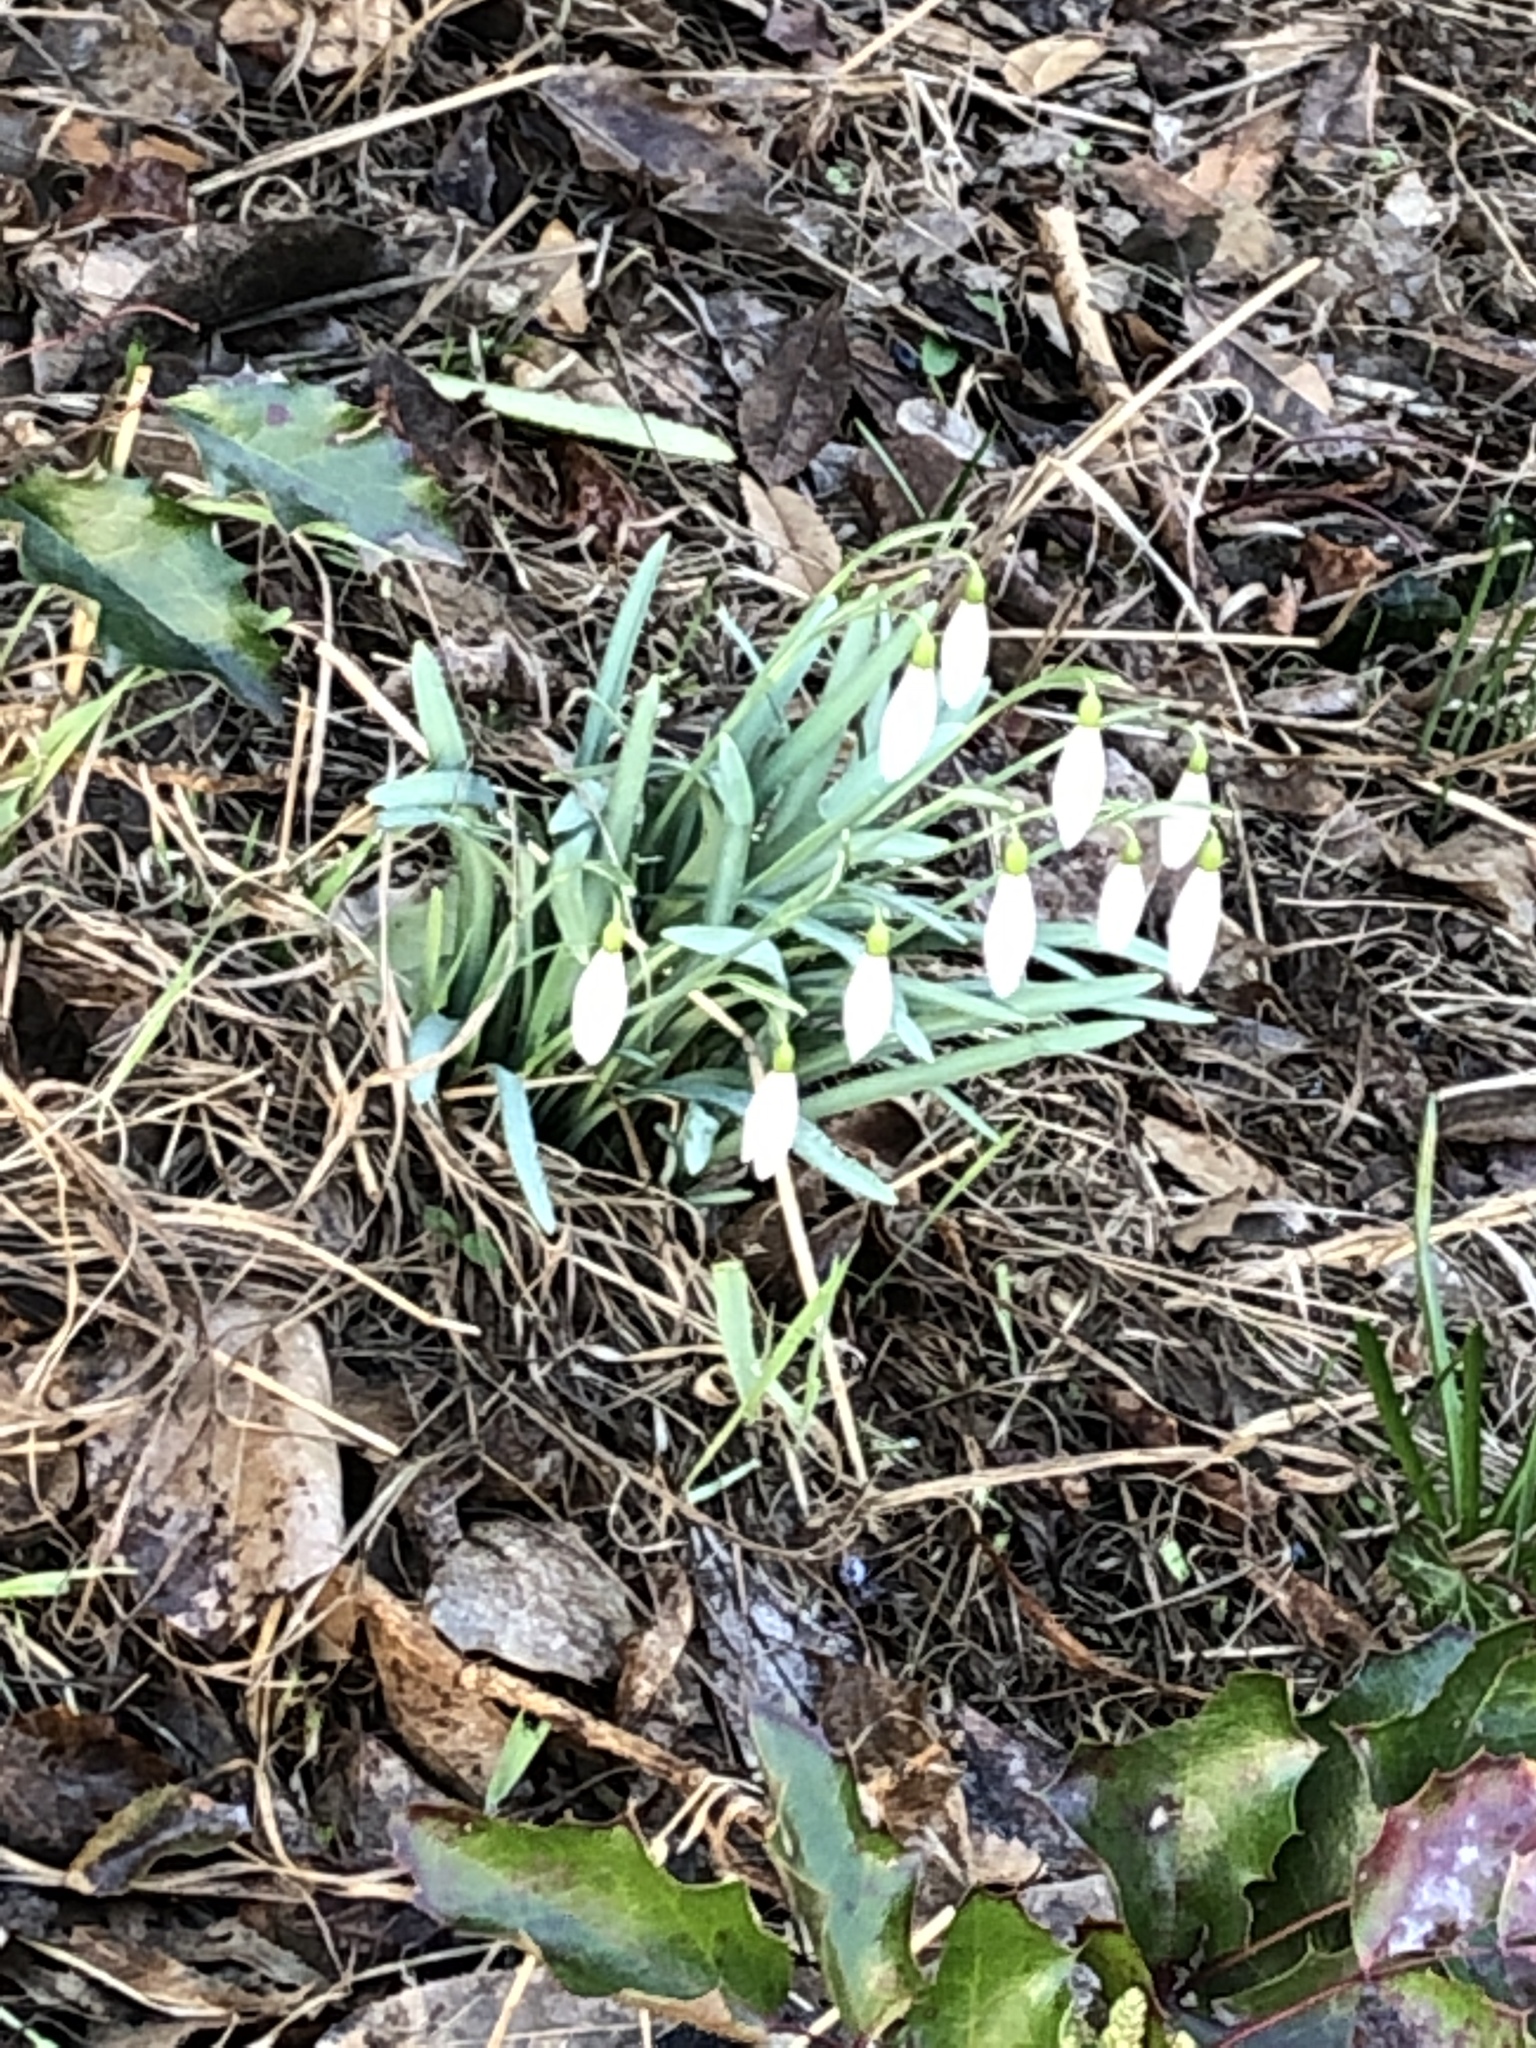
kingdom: Plantae
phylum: Tracheophyta
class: Liliopsida
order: Asparagales
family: Amaryllidaceae
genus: Galanthus
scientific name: Galanthus nivalis
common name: Snowdrop
